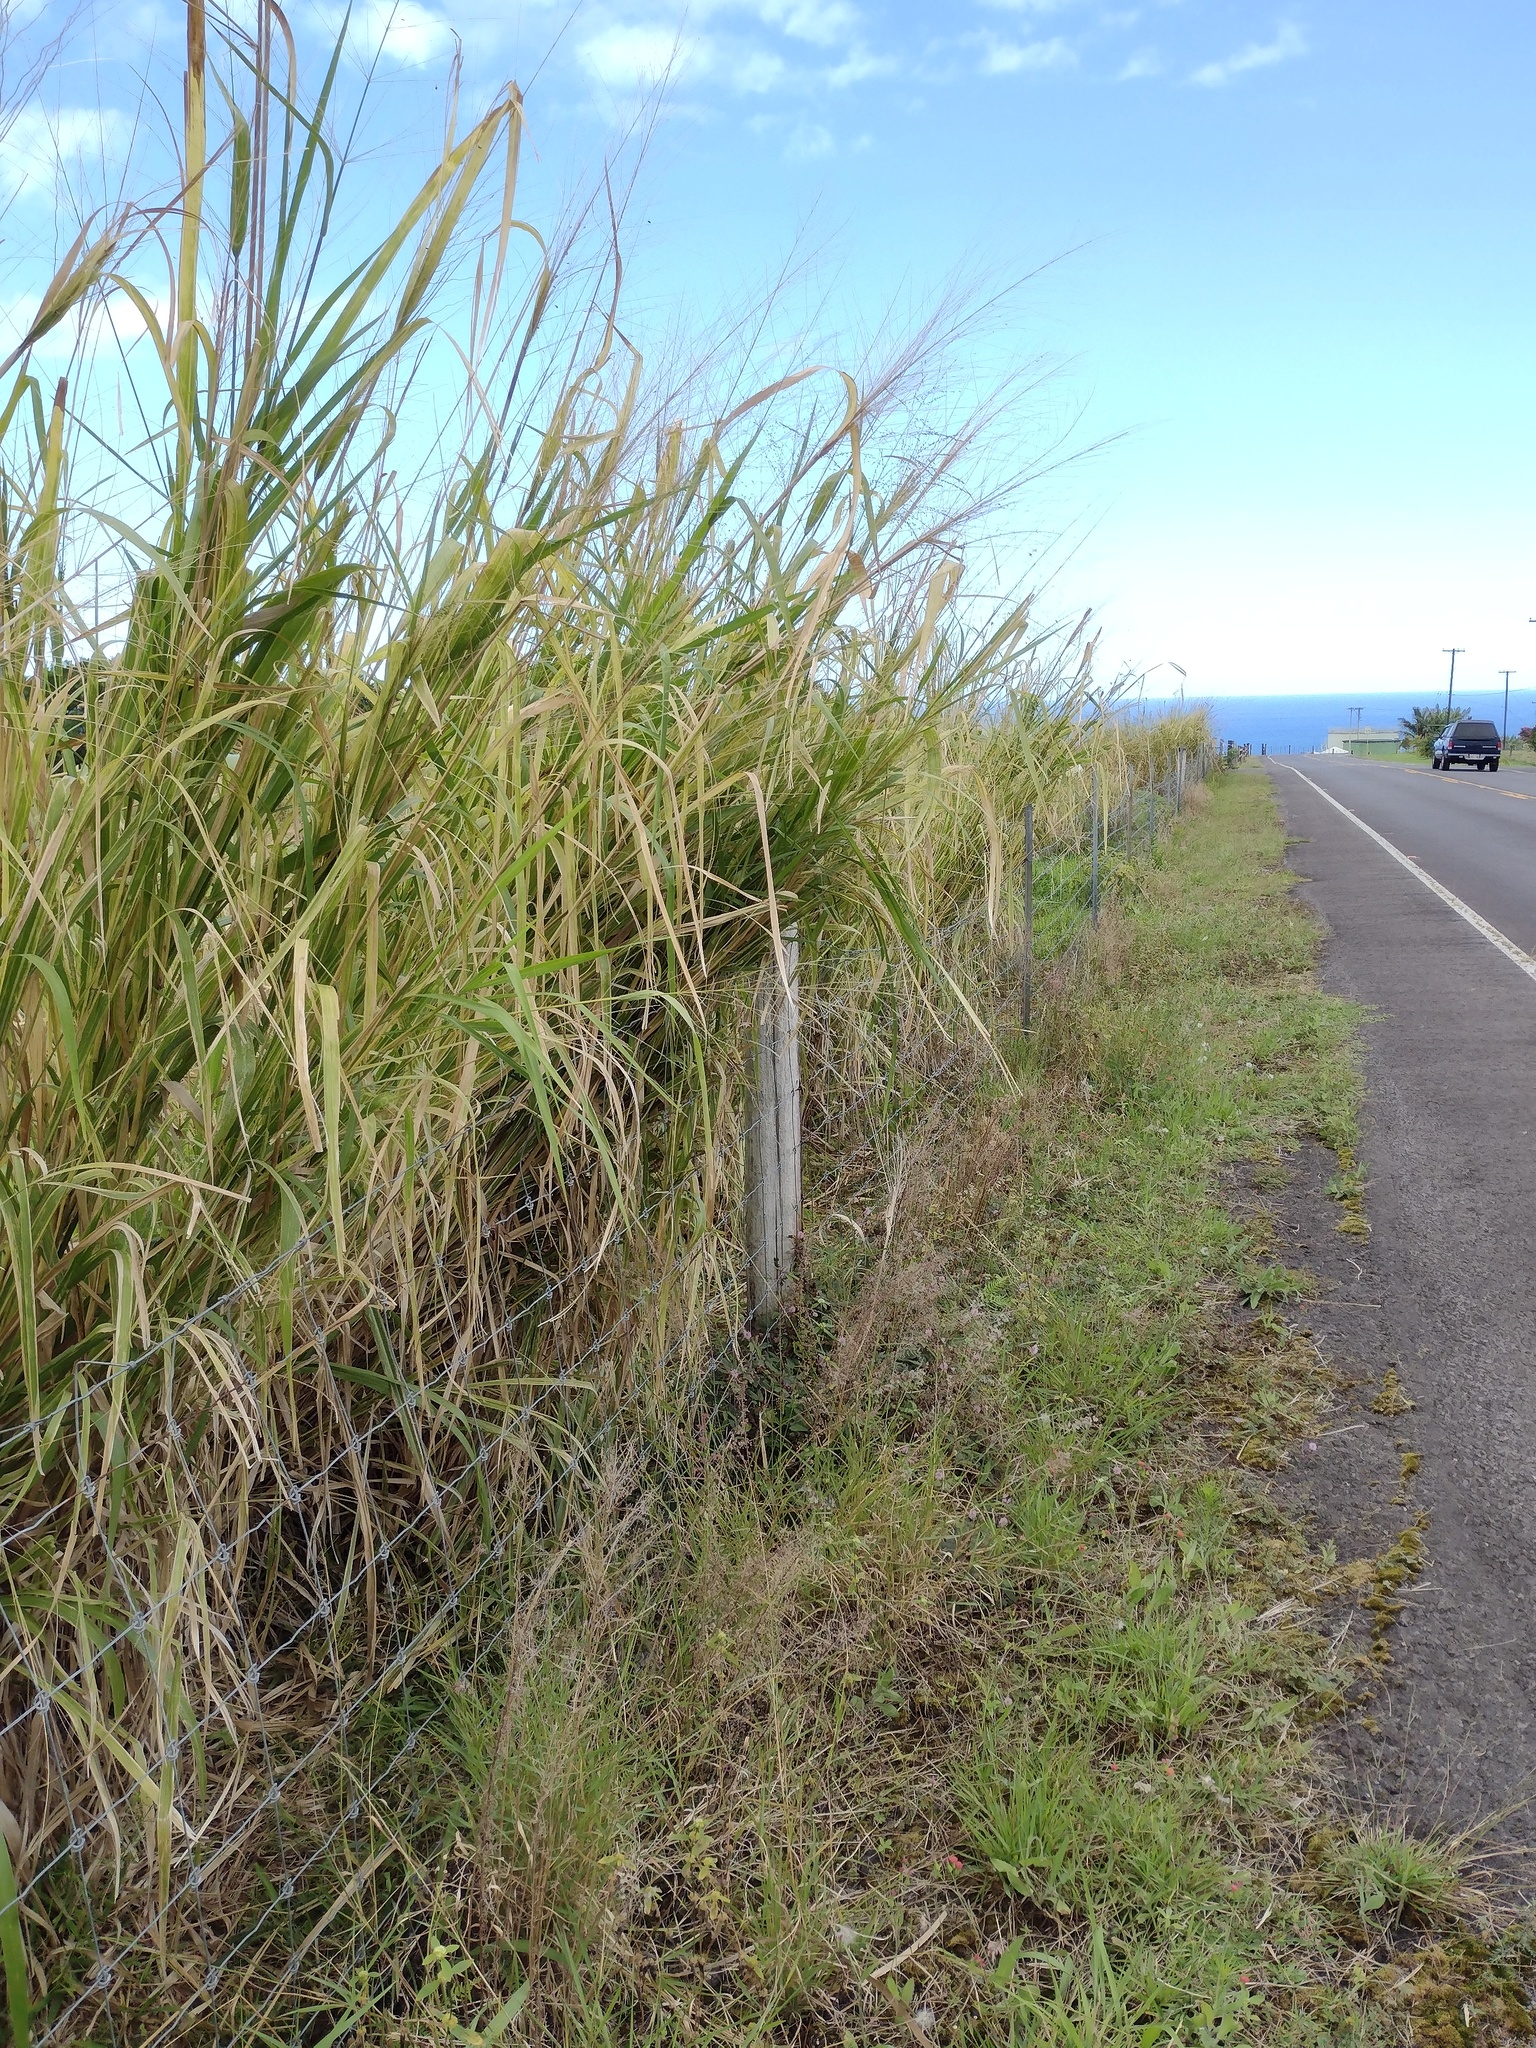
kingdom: Plantae
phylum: Tracheophyta
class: Liliopsida
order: Poales
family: Poaceae
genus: Megathyrsus
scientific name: Megathyrsus maximus
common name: Guineagrass
